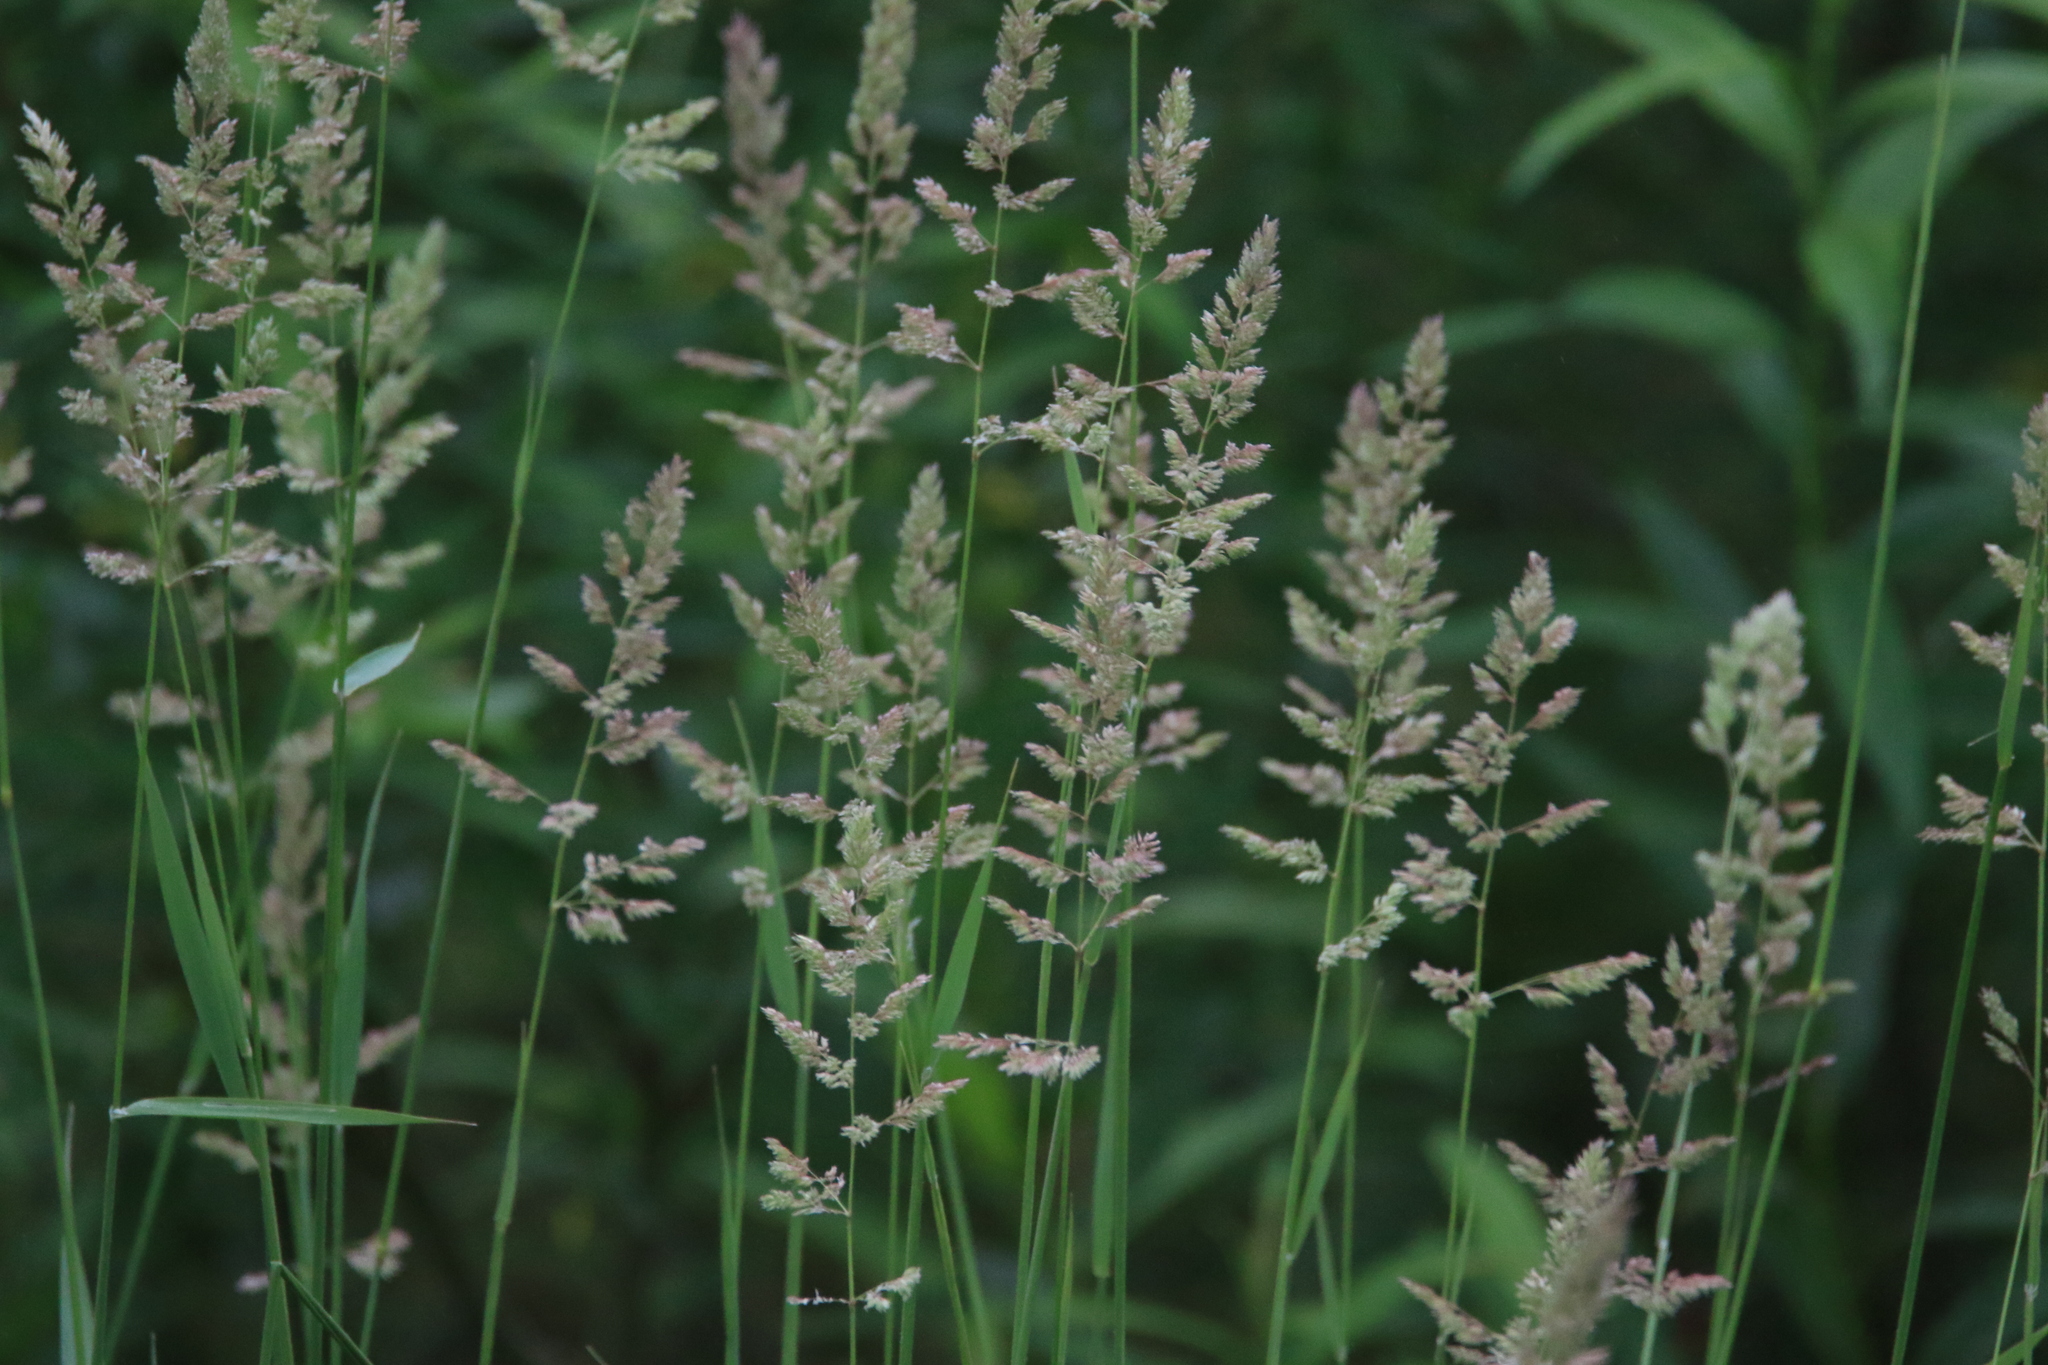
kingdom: Plantae
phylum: Tracheophyta
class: Liliopsida
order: Poales
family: Poaceae
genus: Phalaris
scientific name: Phalaris arundinacea
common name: Reed canary-grass
